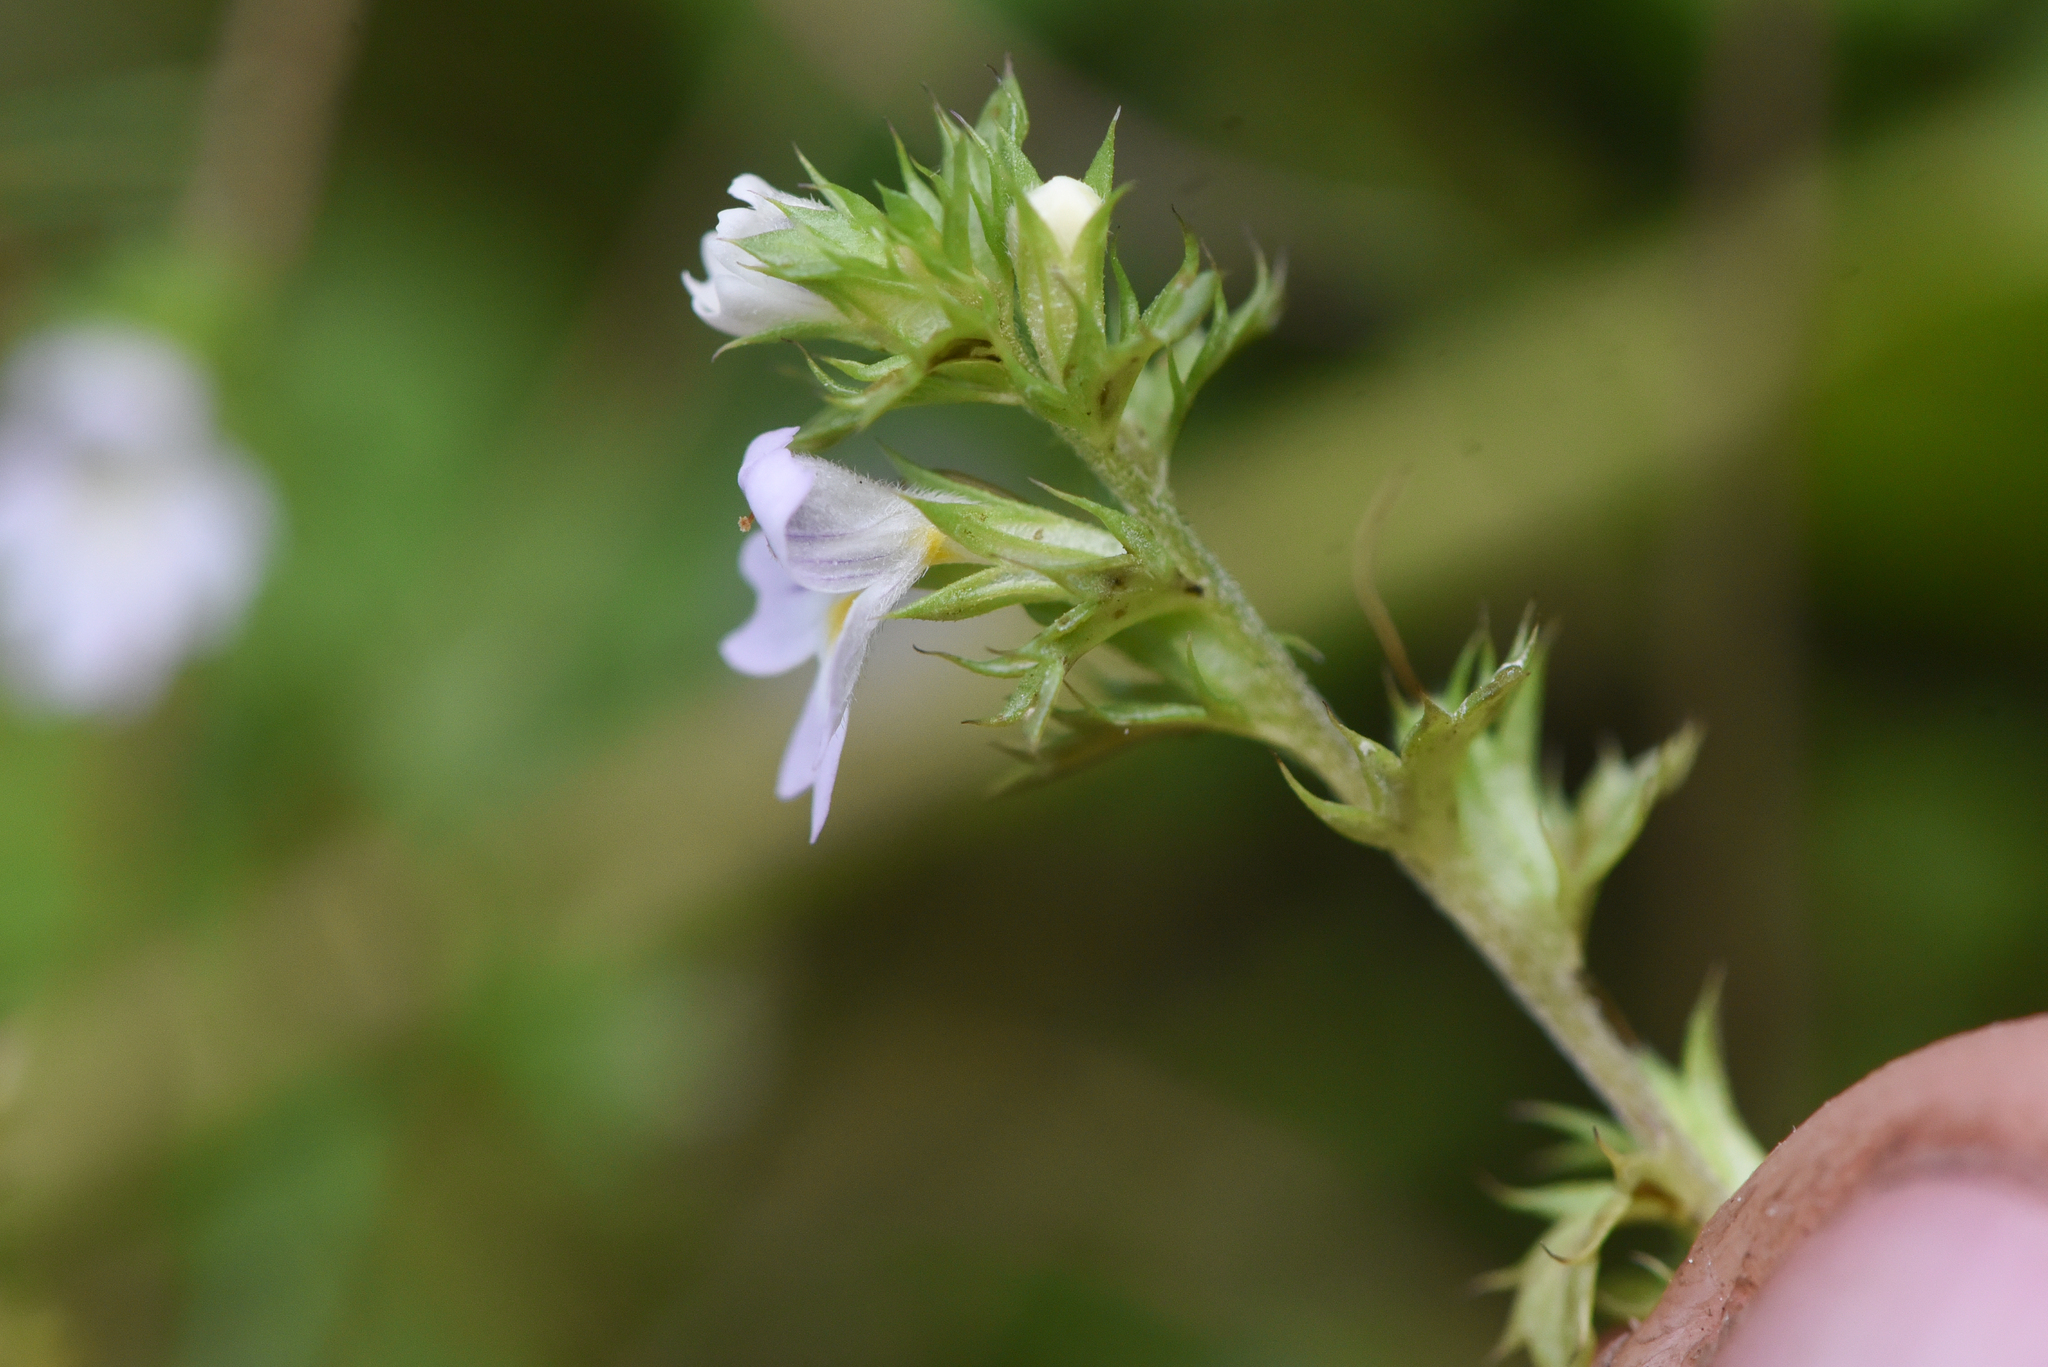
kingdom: Plantae
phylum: Tracheophyta
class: Magnoliopsida
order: Lamiales
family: Orobanchaceae
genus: Euphrasia
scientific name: Euphrasia nemorosa
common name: Common eyebright
